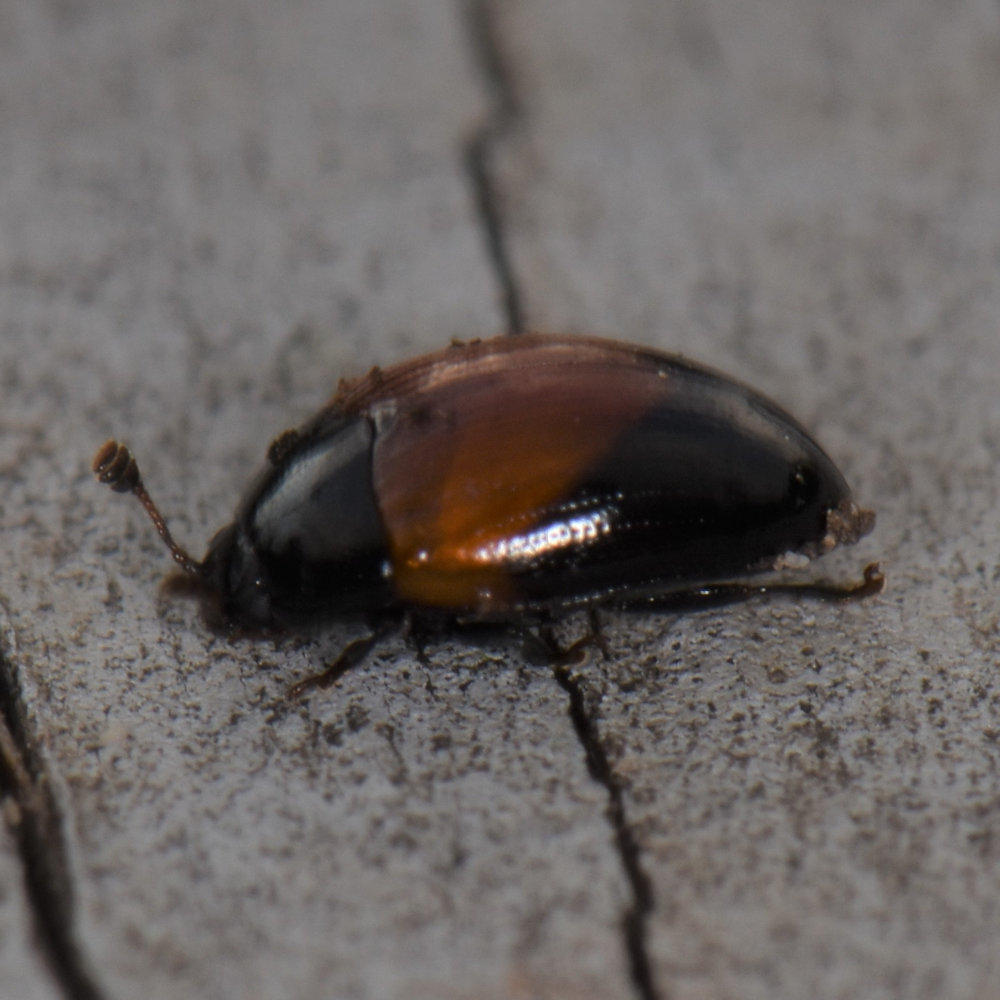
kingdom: Animalia
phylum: Arthropoda
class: Insecta
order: Coleoptera
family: Erotylidae
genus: Tritoma
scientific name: Tritoma pulchra
